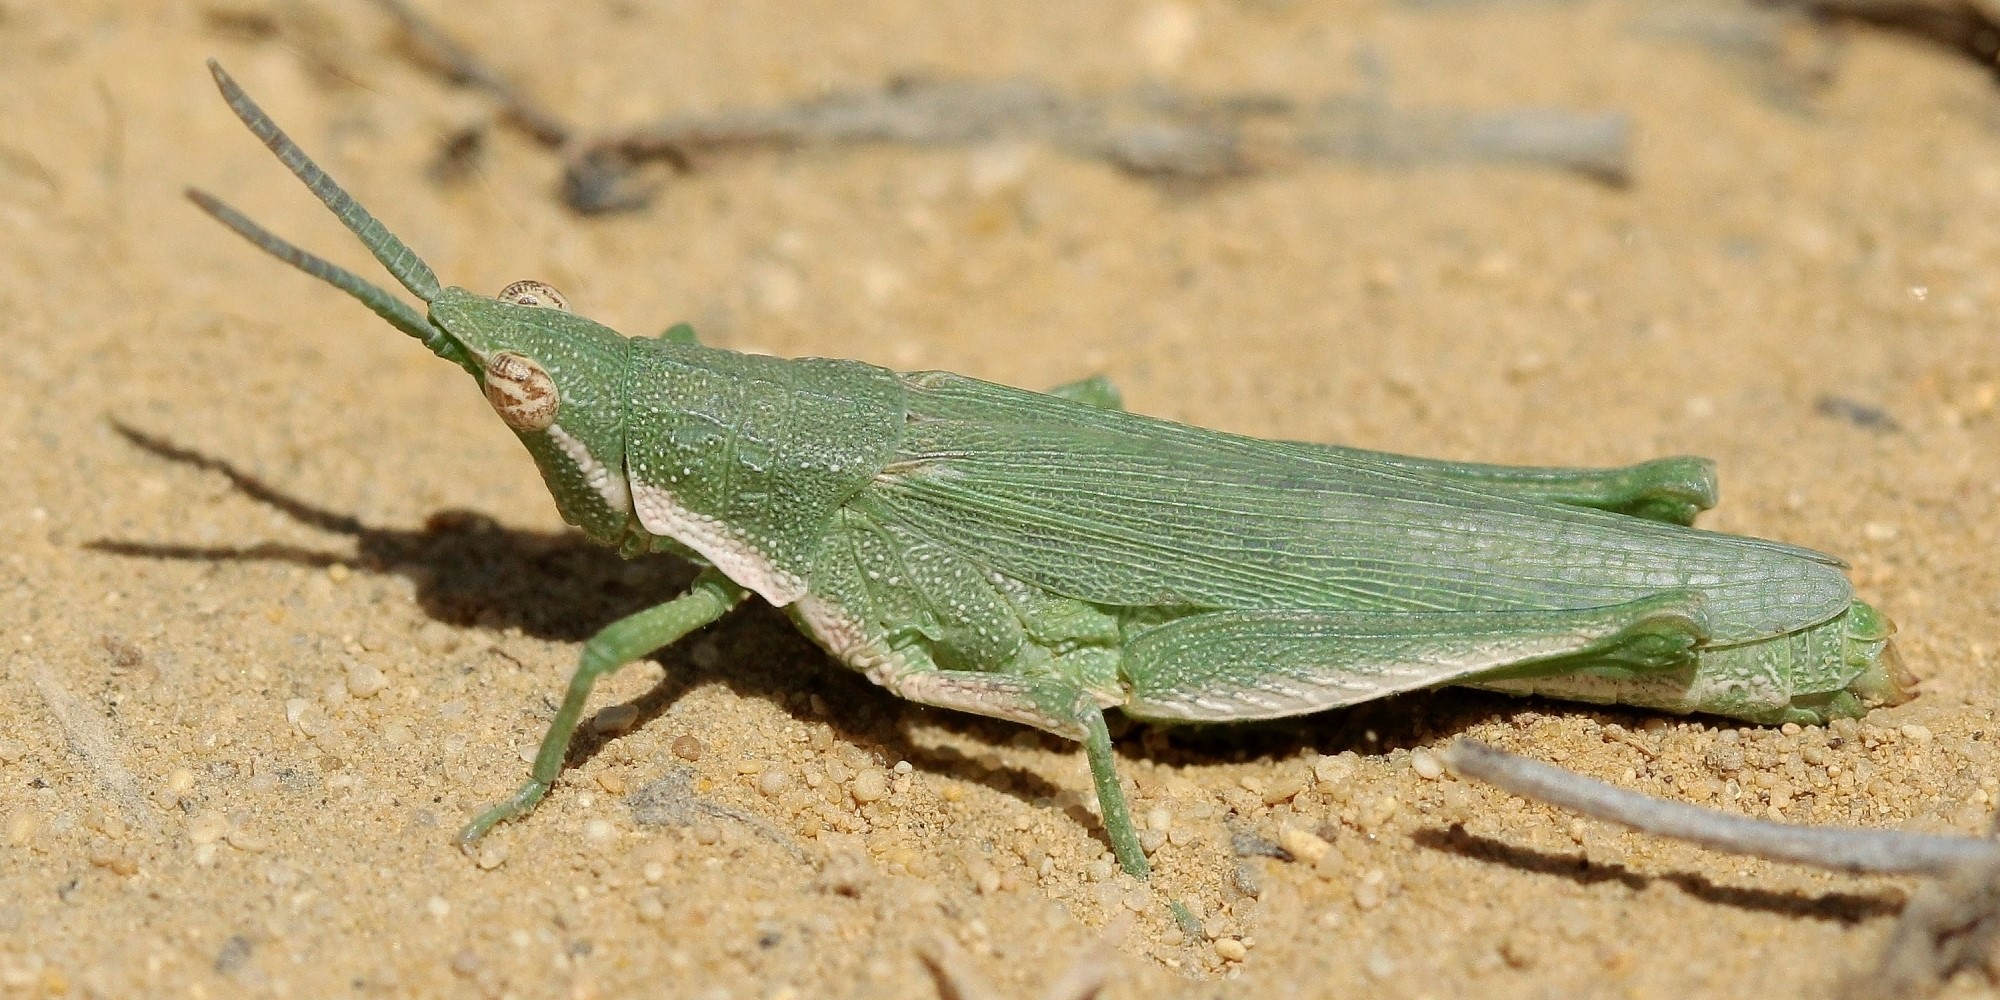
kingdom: Animalia
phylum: Arthropoda
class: Insecta
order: Orthoptera
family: Pyrgomorphidae
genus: Pyrgomorpha
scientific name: Pyrgomorpha bispinosa
